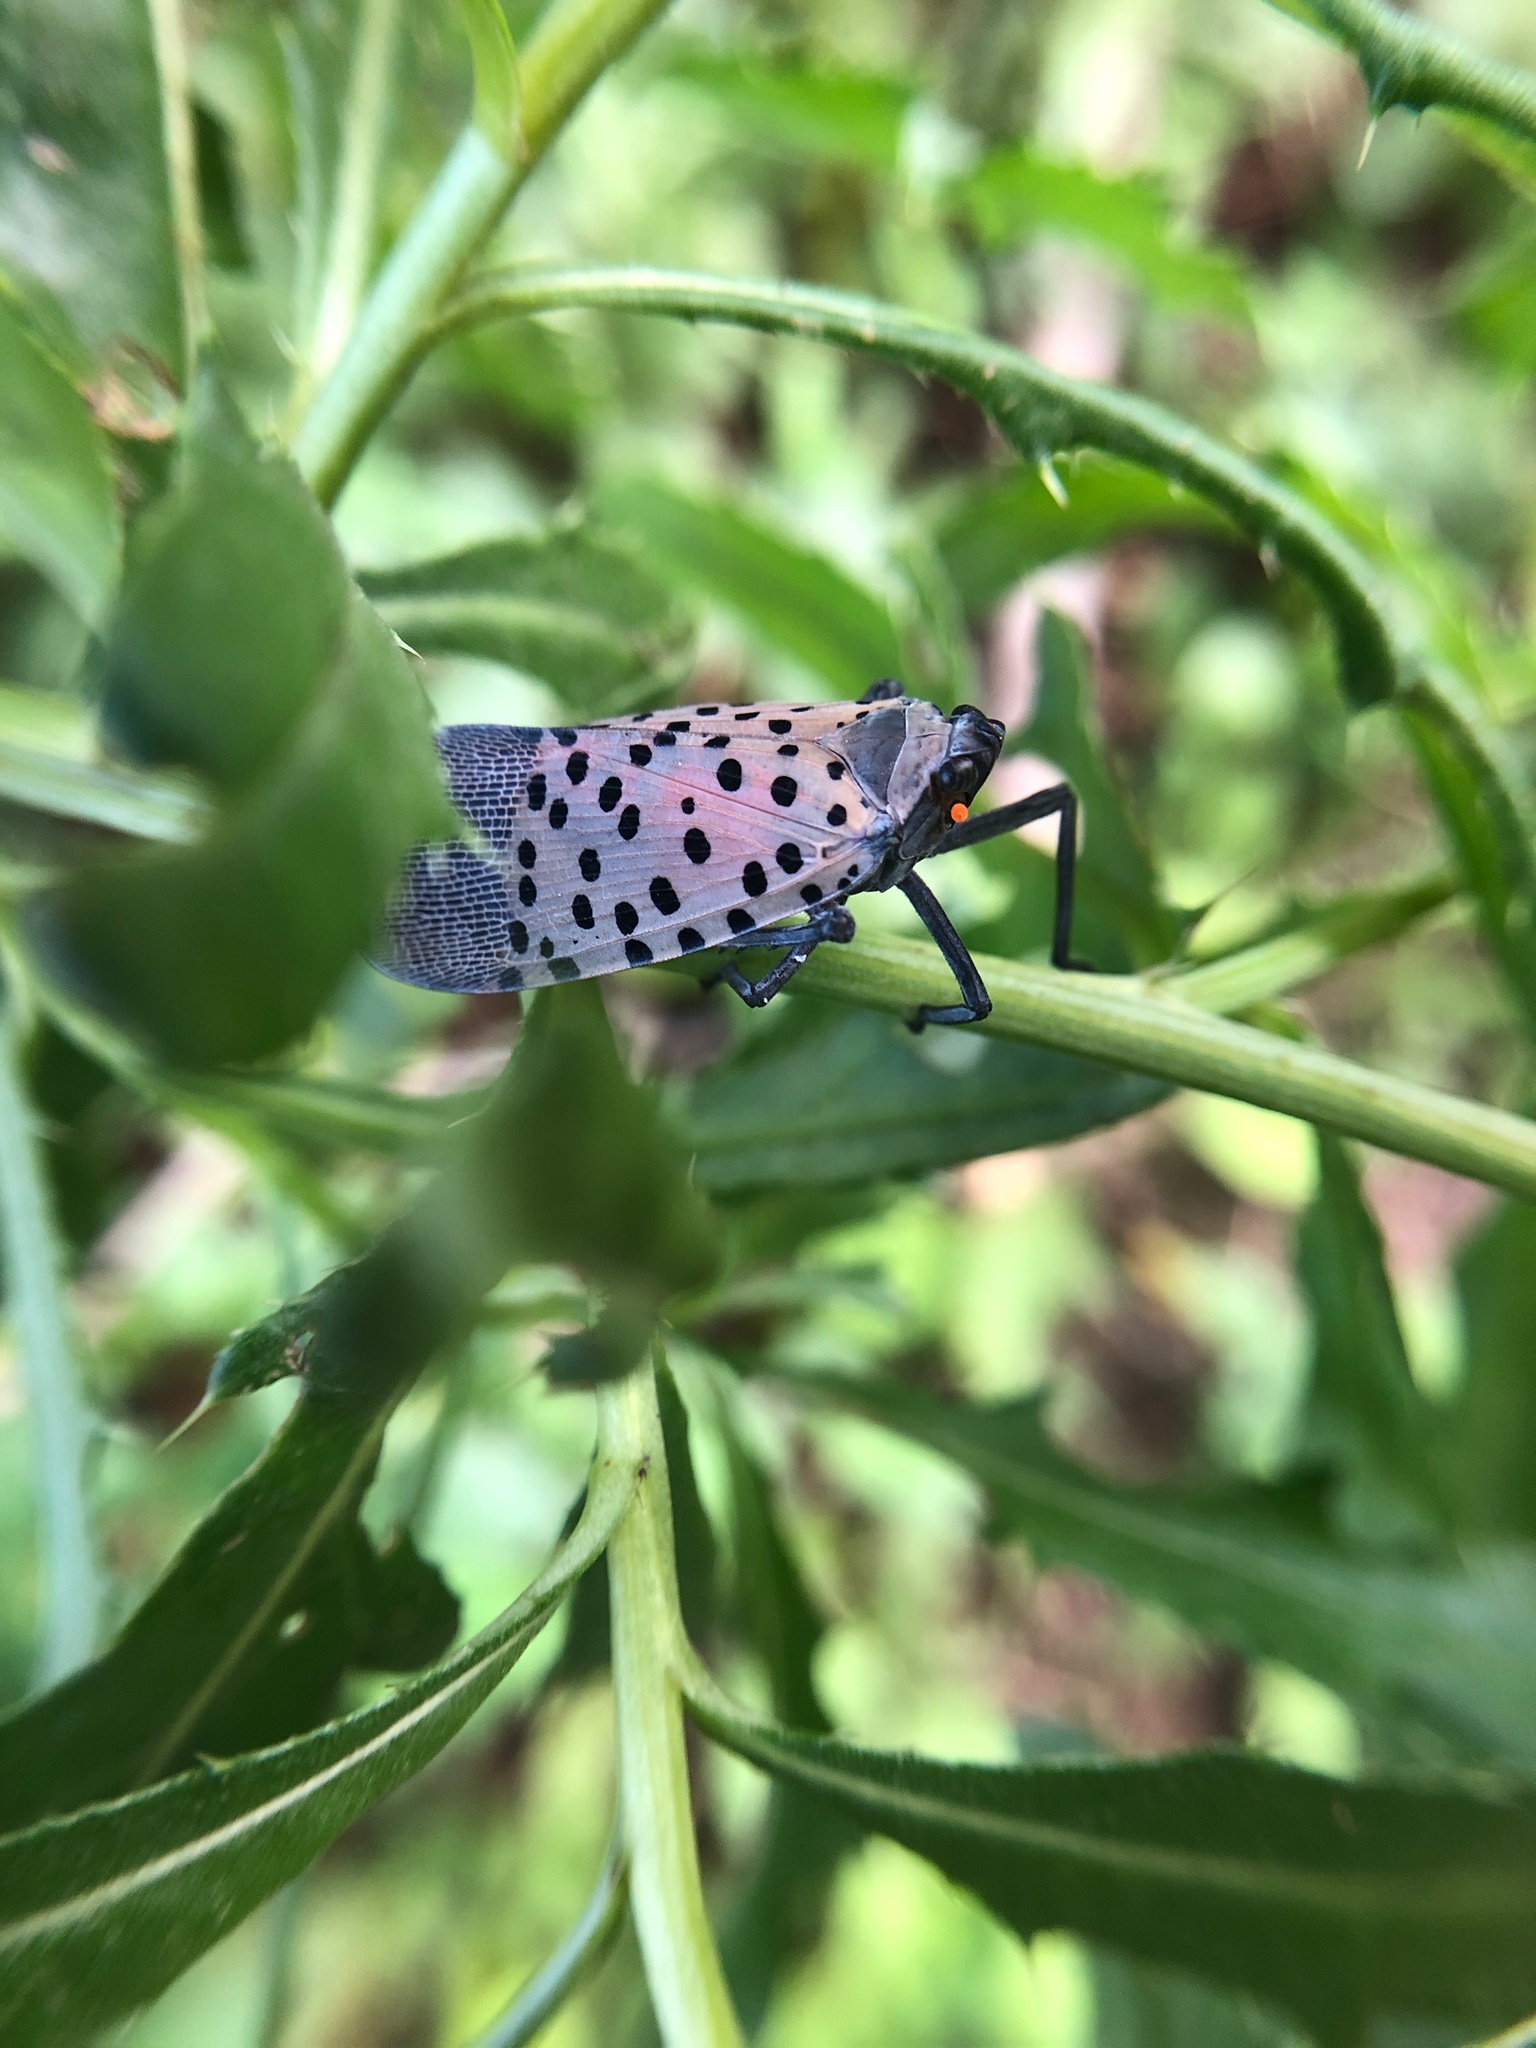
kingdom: Animalia
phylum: Arthropoda
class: Insecta
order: Hemiptera
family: Fulgoridae
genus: Lycorma
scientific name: Lycorma delicatula
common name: Spotted lanternfly
